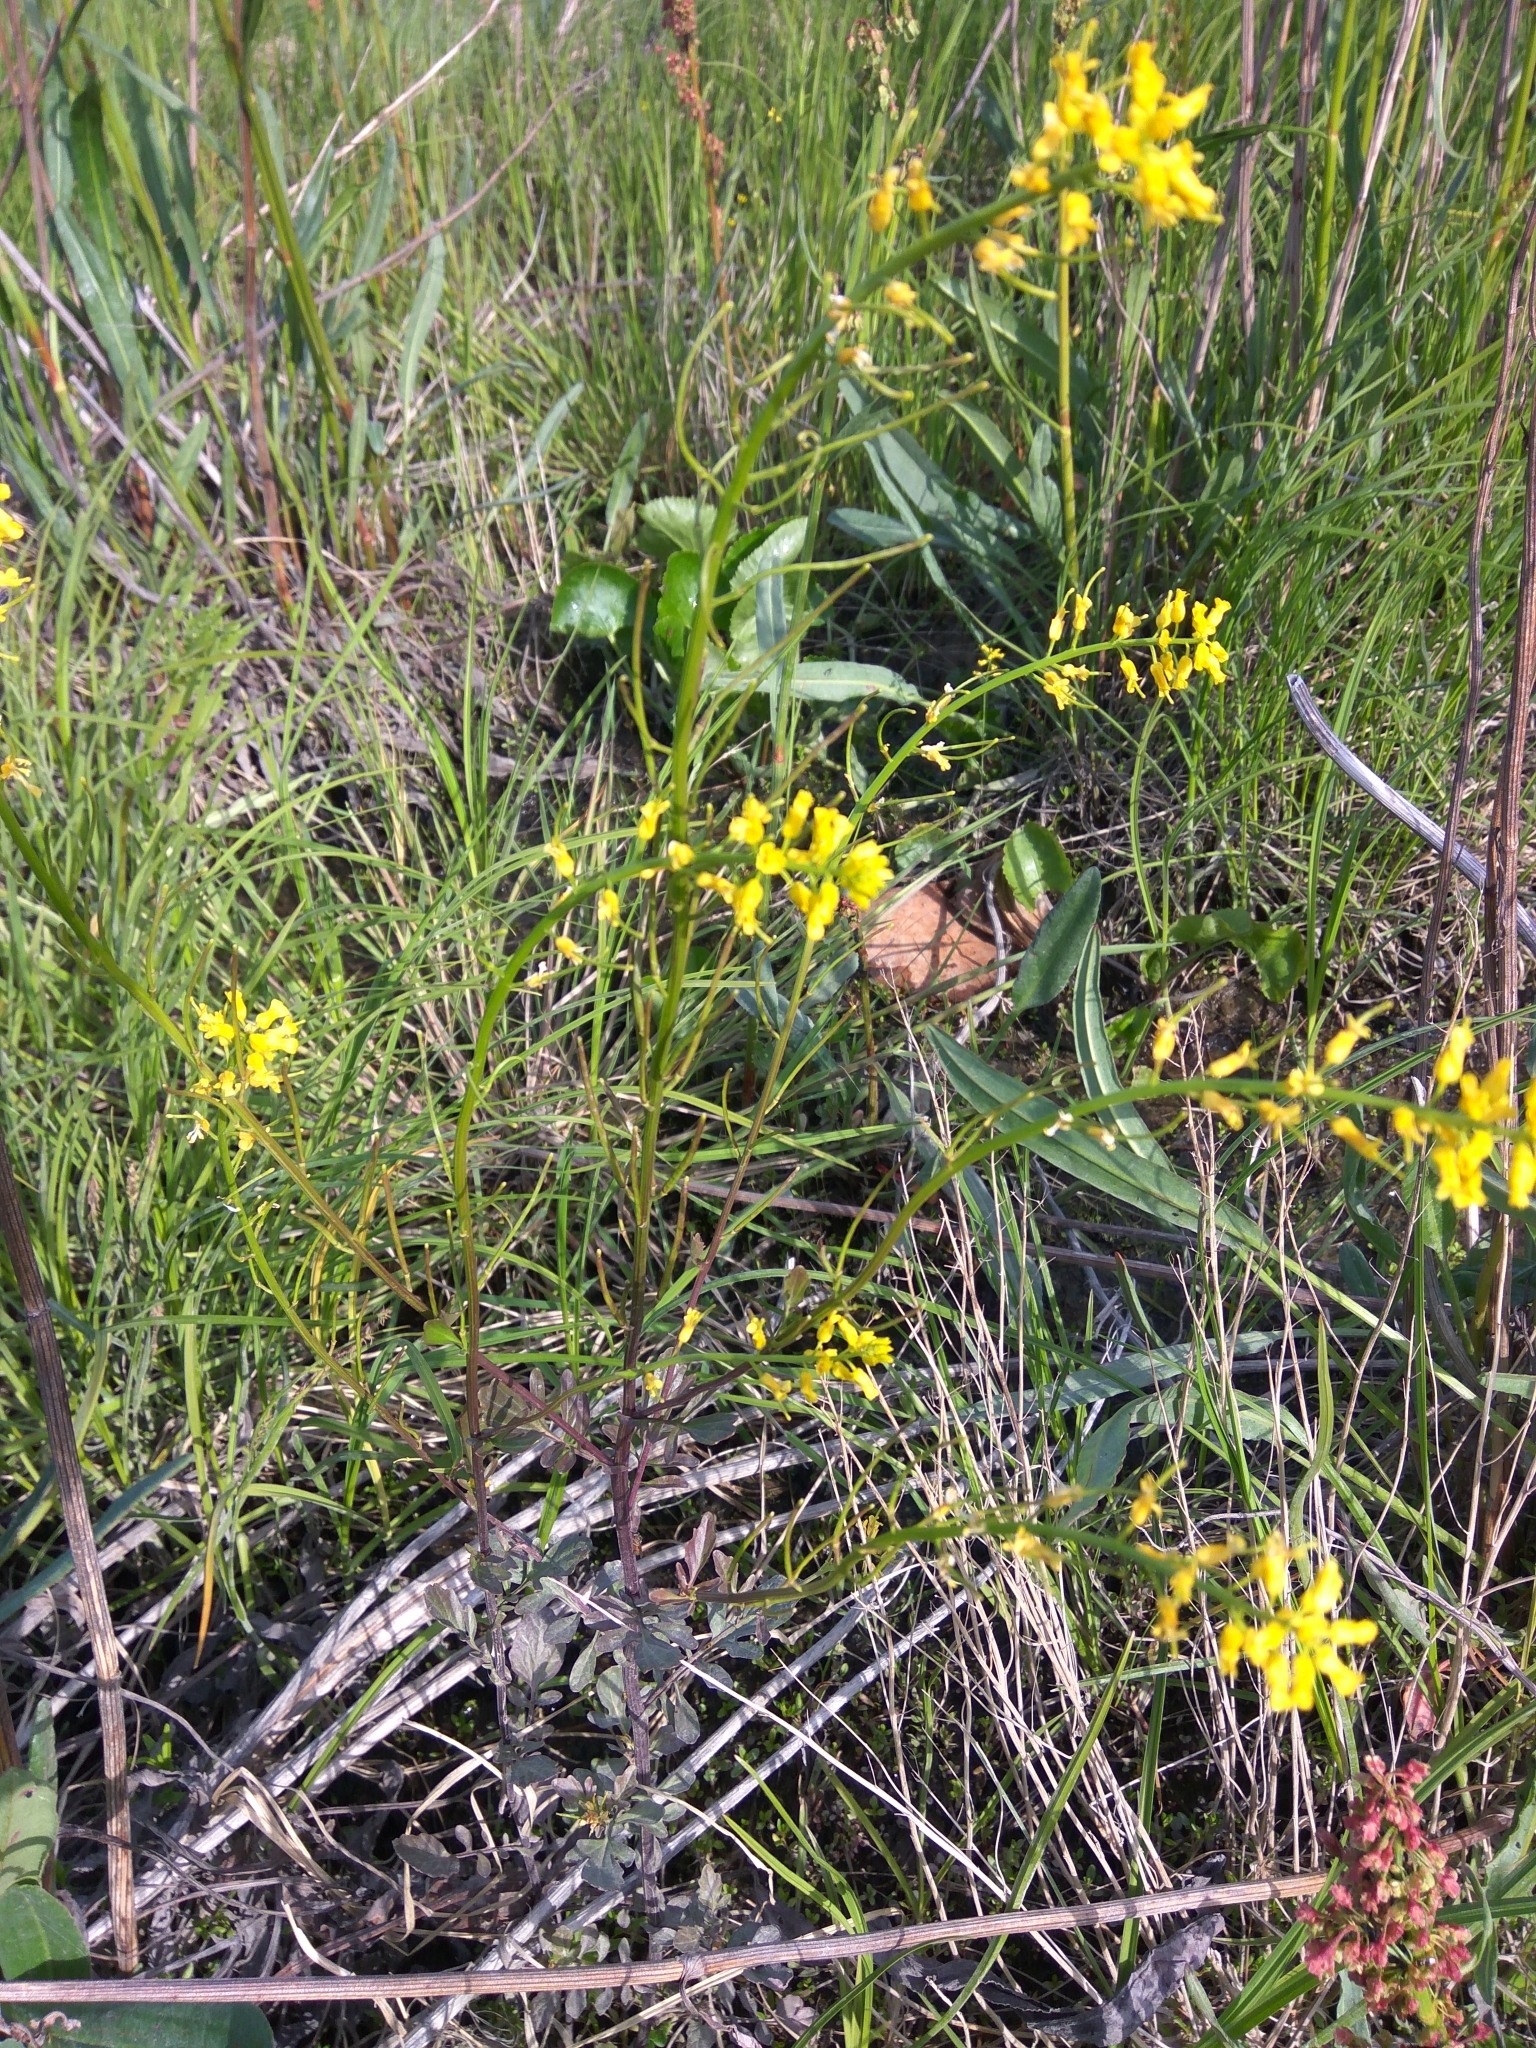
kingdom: Plantae
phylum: Tracheophyta
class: Magnoliopsida
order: Brassicales
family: Brassicaceae
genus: Barbarea
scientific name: Barbarea orthoceras
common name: American wintercress
